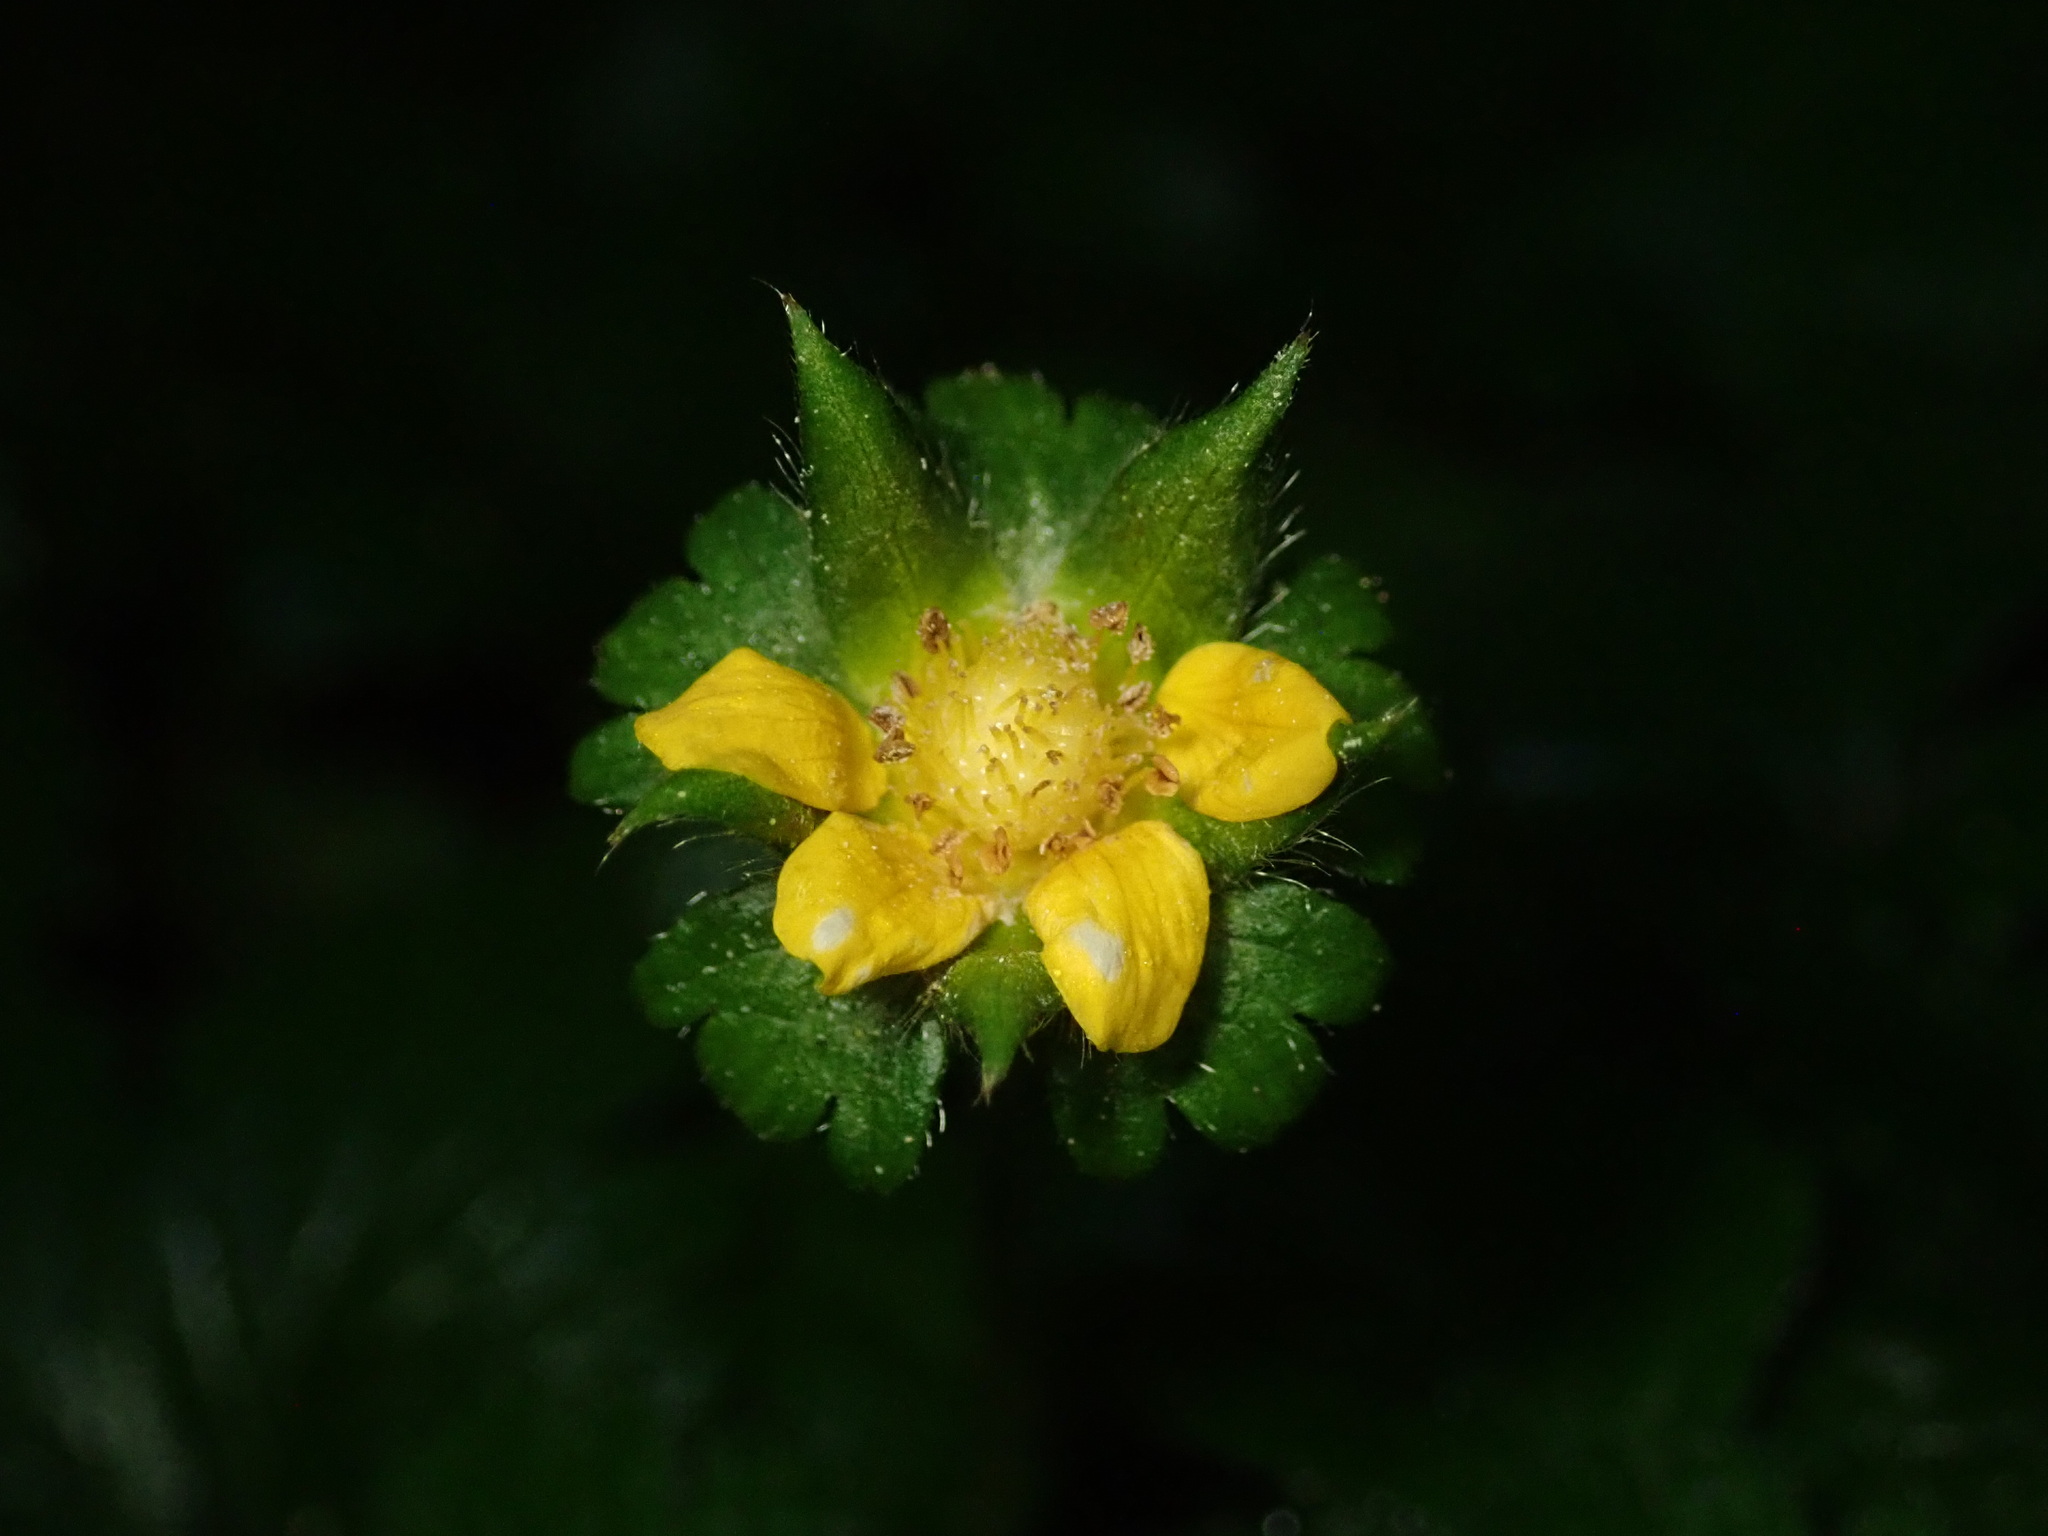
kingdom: Plantae
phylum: Tracheophyta
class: Magnoliopsida
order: Rosales
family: Rosaceae
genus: Potentilla
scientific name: Potentilla indica
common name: Yellow-flowered strawberry
